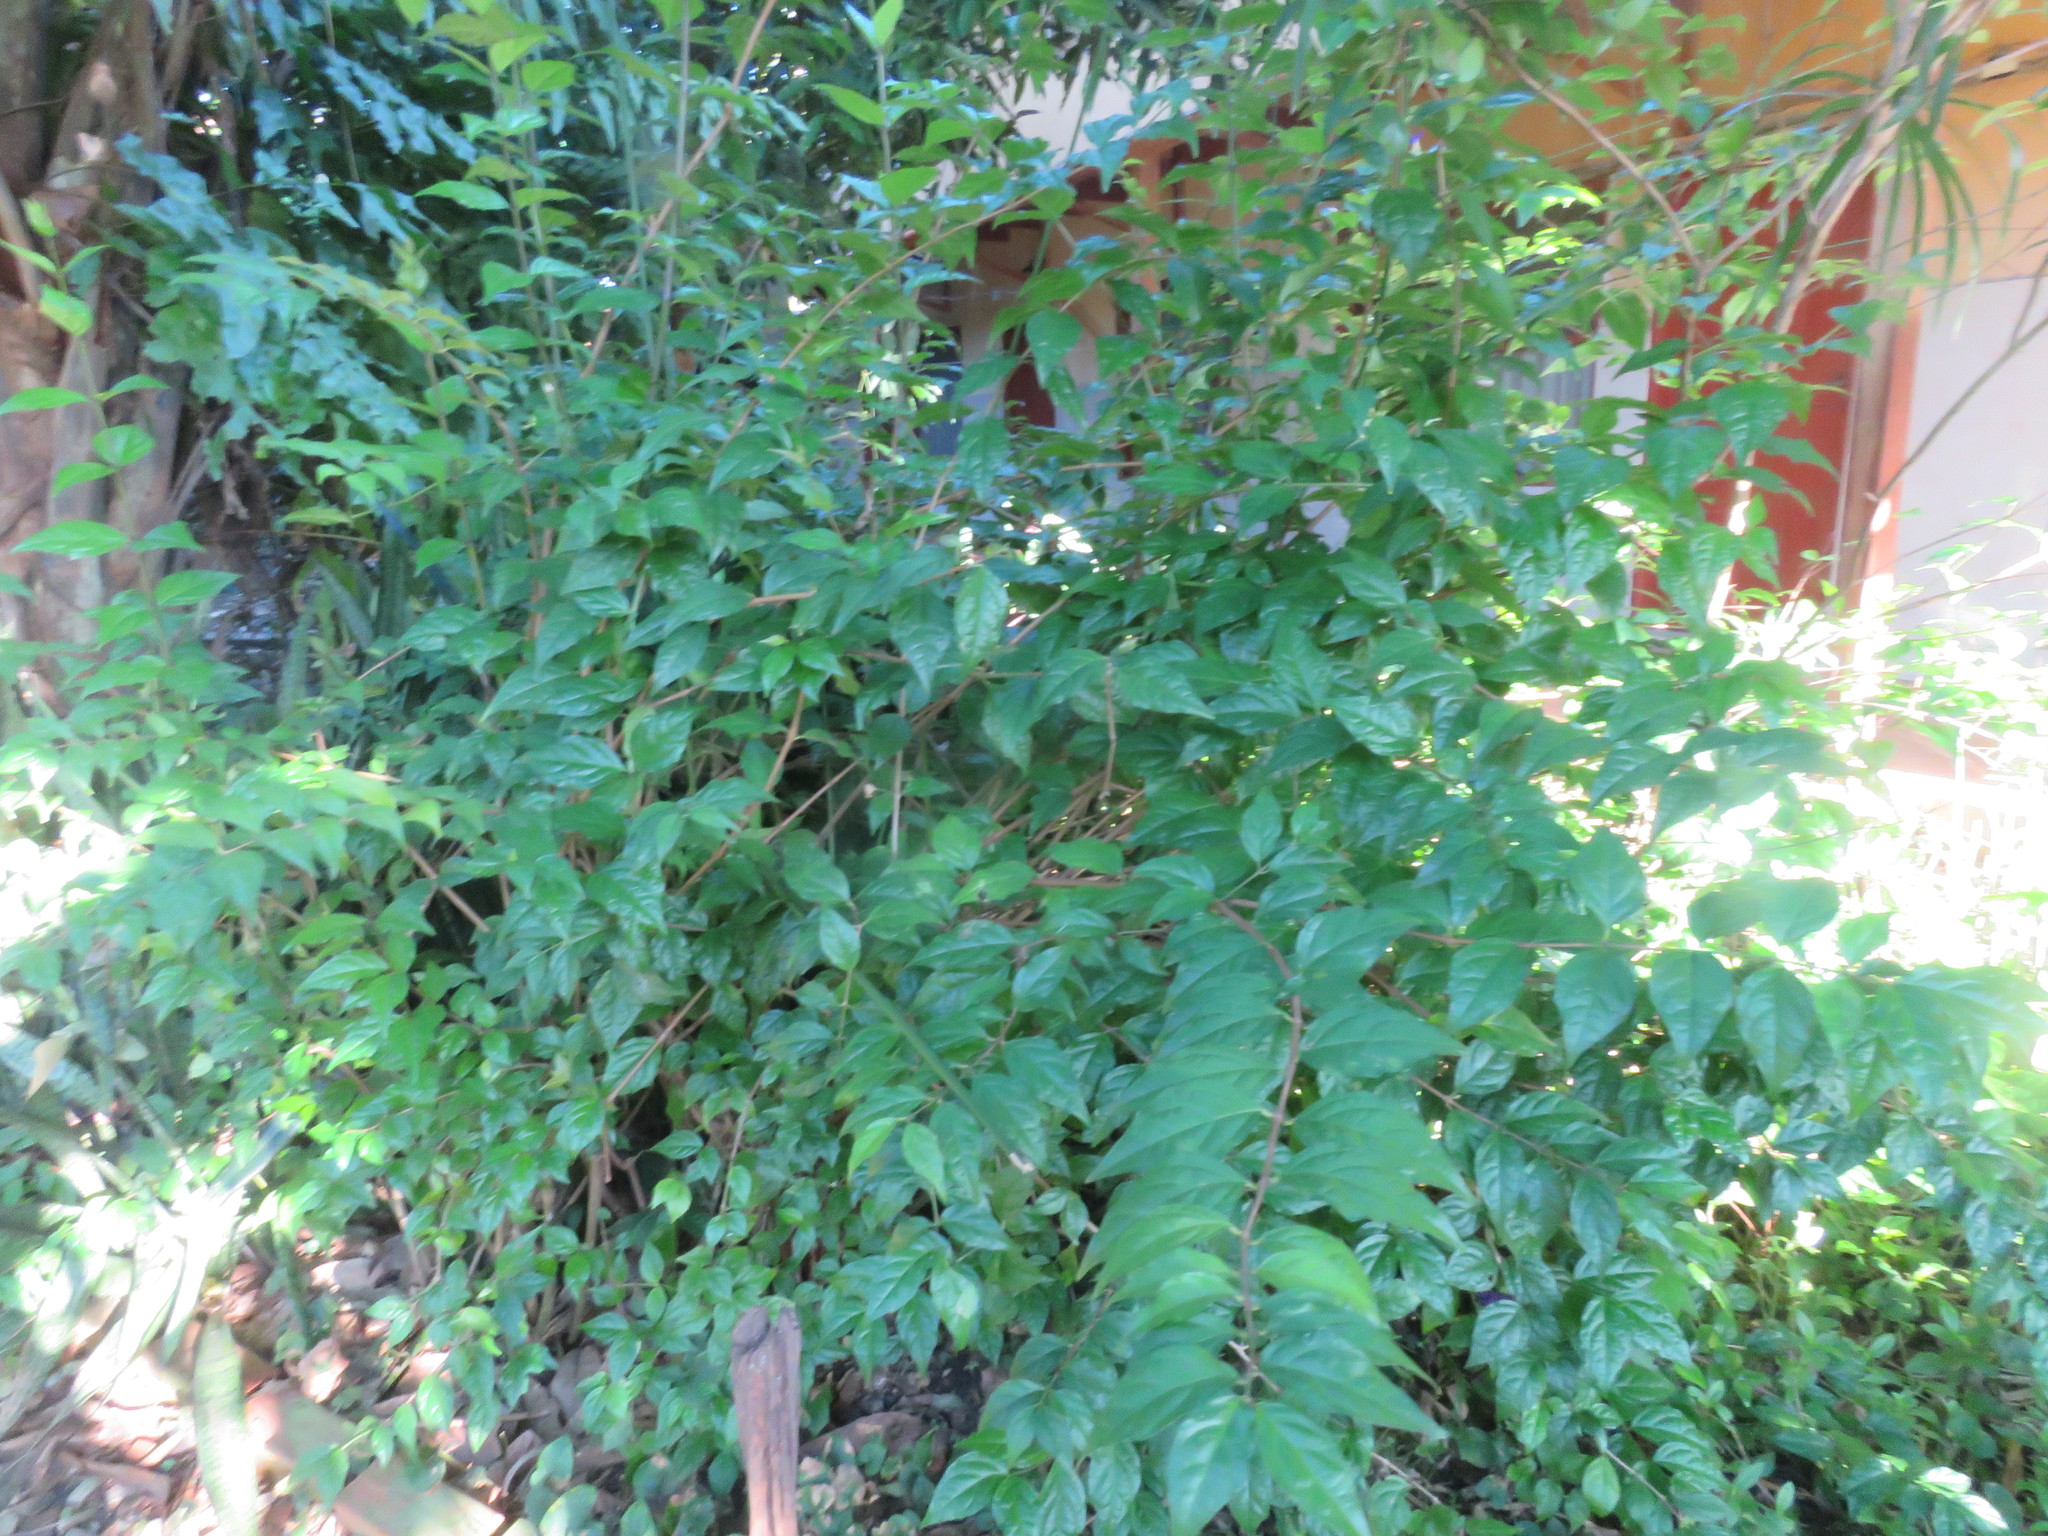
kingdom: Plantae
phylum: Tracheophyta
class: Magnoliopsida
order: Lamiales
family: Acanthaceae
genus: Thunbergia
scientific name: Thunbergia erecta
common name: Bush clockvine
